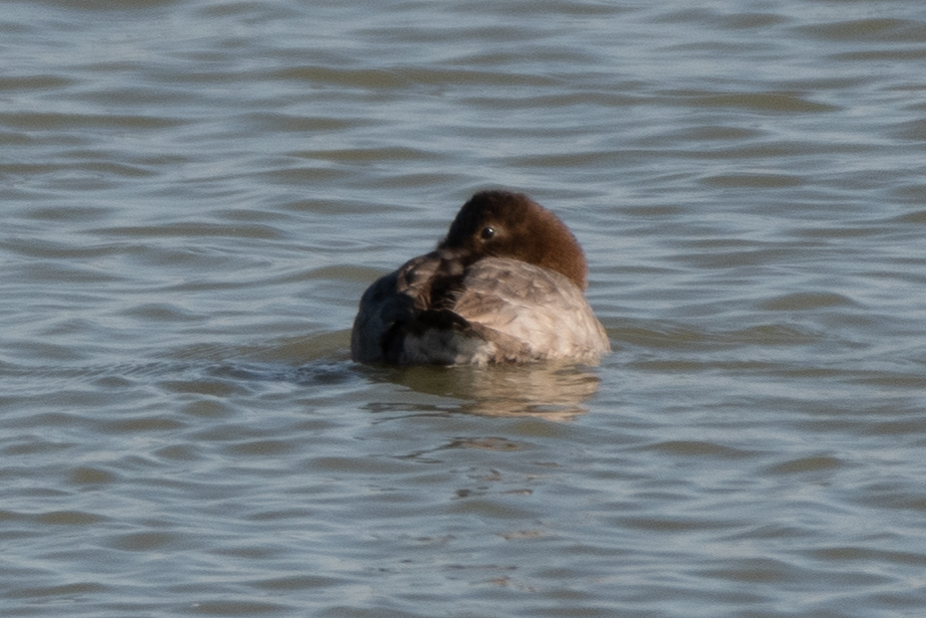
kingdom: Animalia
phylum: Chordata
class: Aves
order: Anseriformes
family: Anatidae
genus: Aythya
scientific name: Aythya valisineria
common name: Canvasback
